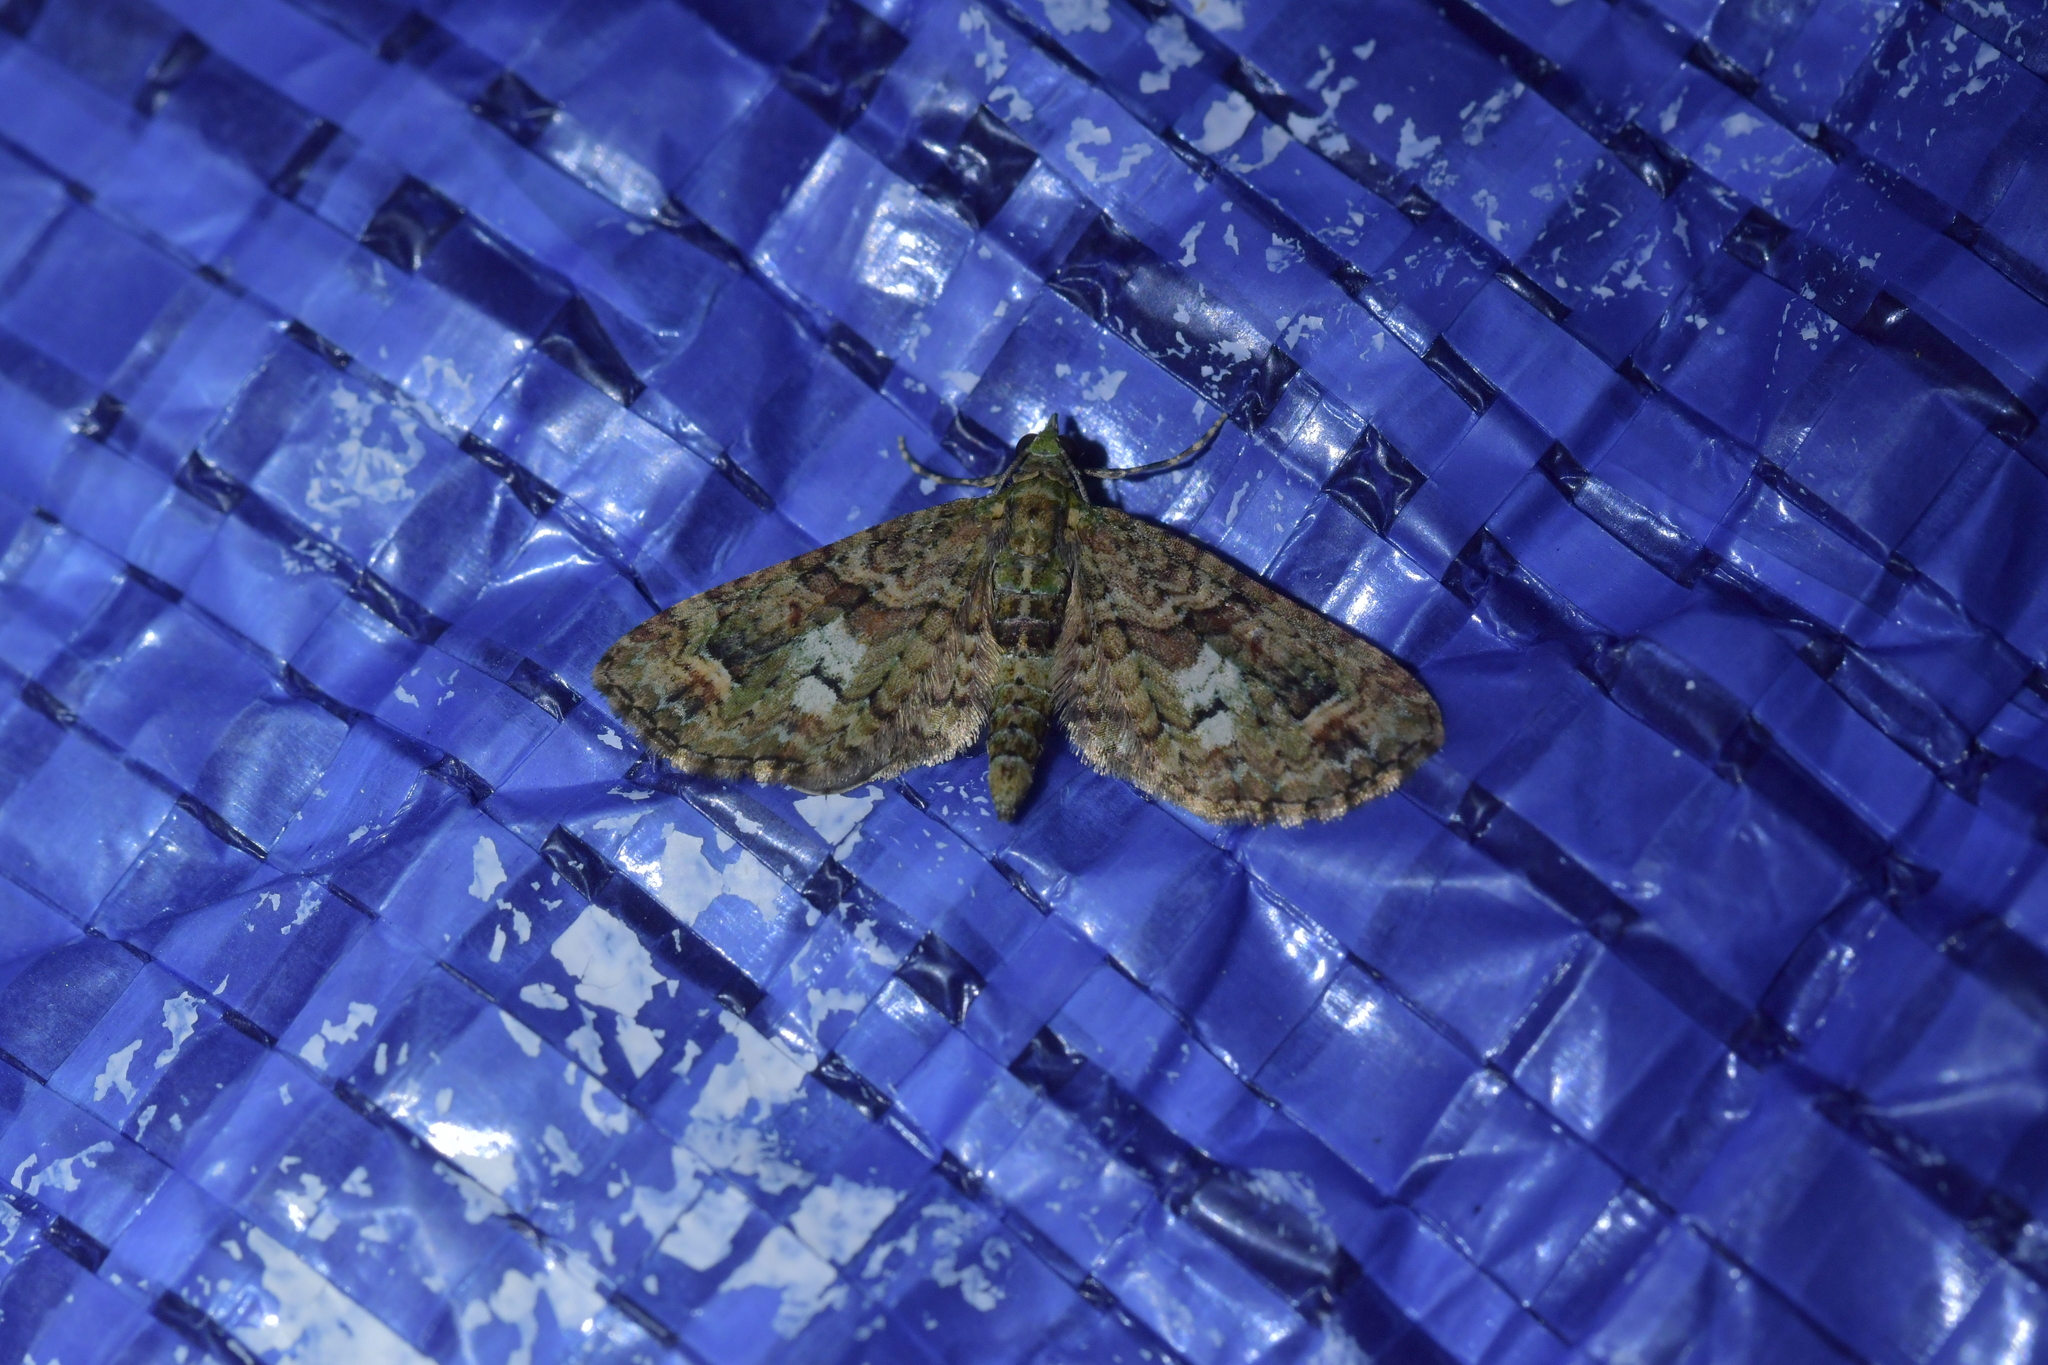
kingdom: Animalia
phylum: Arthropoda
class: Insecta
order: Lepidoptera
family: Geometridae
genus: Idaea
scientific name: Idaea mutanda
